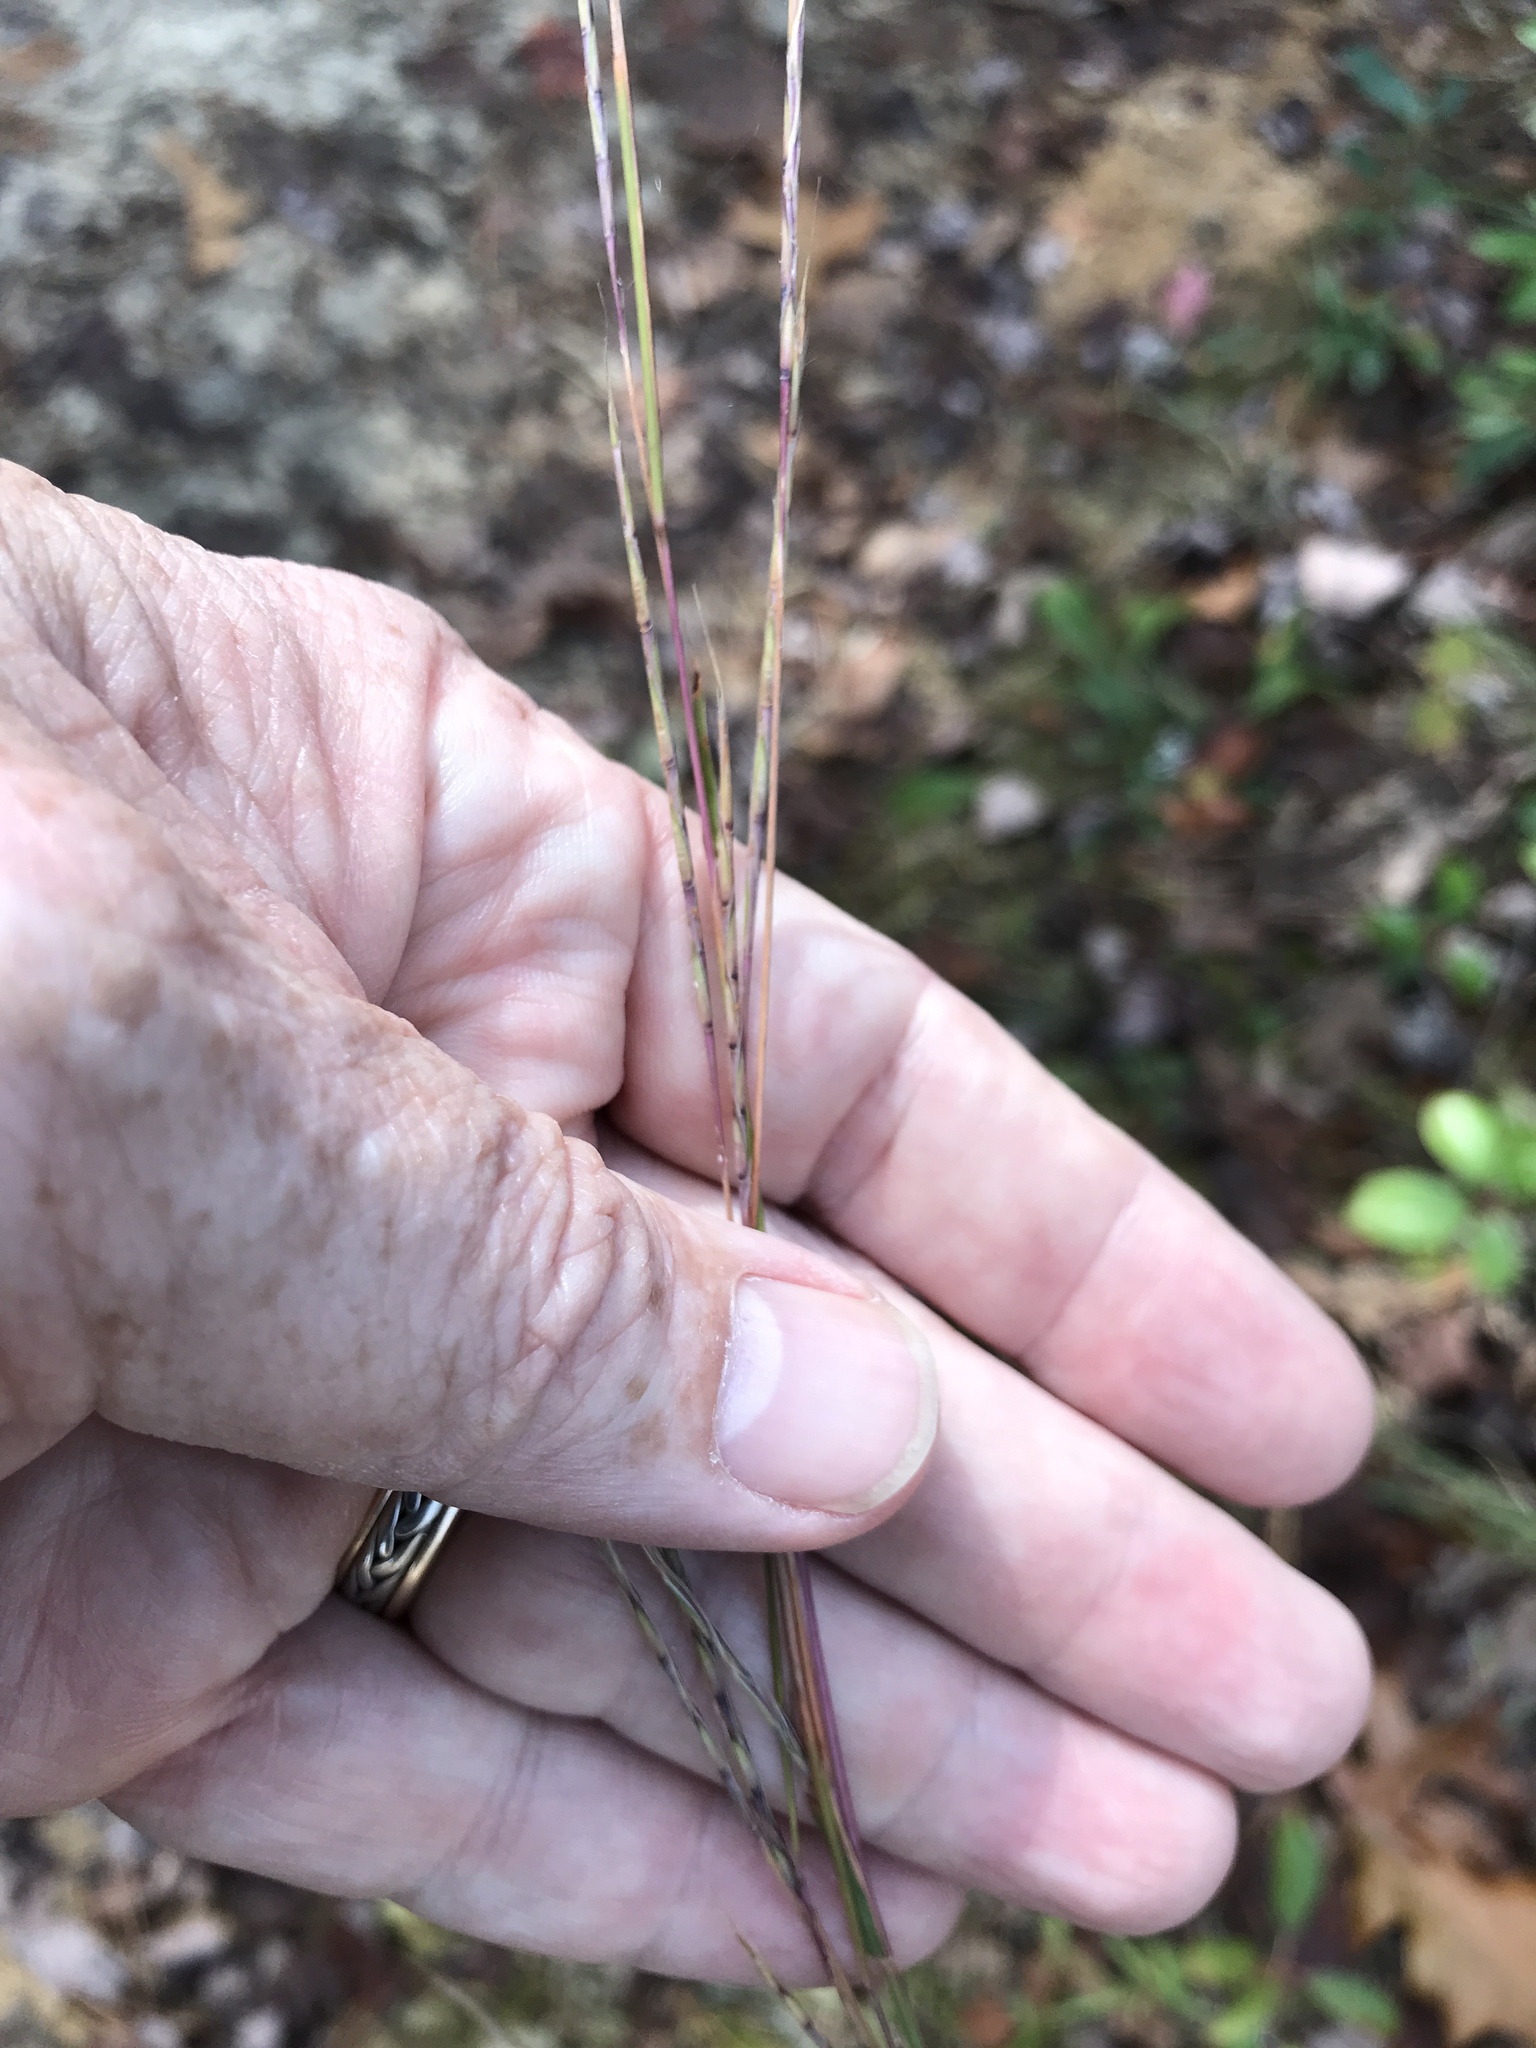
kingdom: Plantae
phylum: Tracheophyta
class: Liliopsida
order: Poales
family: Poaceae
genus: Schizachyrium
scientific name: Schizachyrium scoparium
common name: Little bluestem
